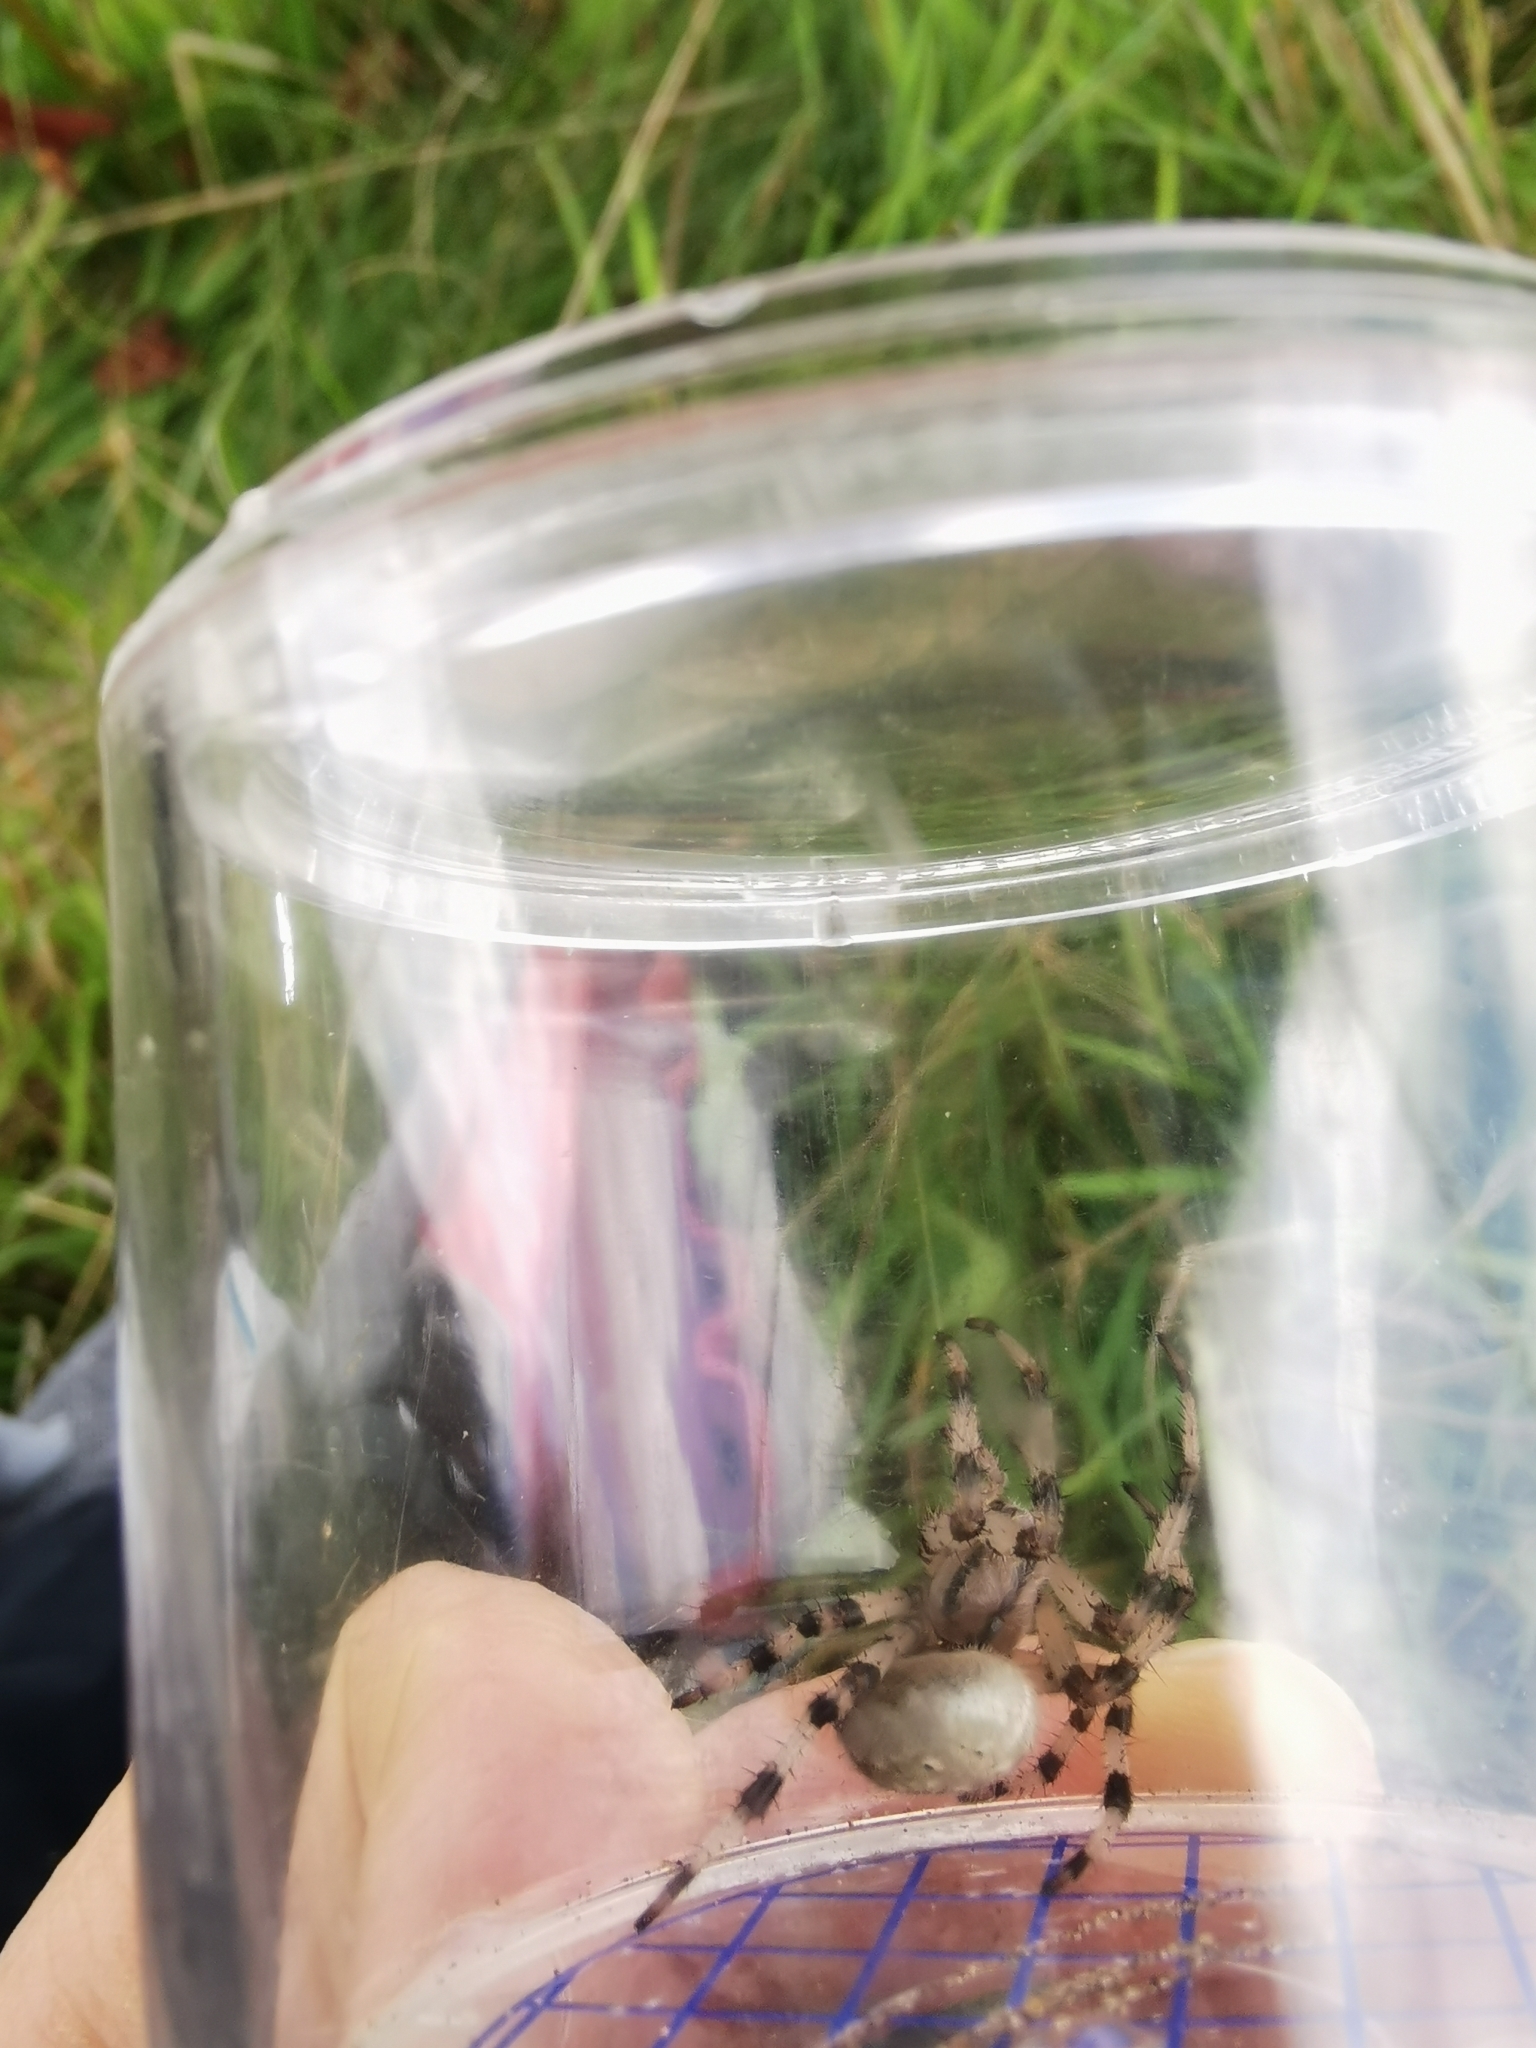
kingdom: Animalia
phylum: Arthropoda
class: Arachnida
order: Araneae
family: Araneidae
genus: Araneus
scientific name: Araneus quadratus
